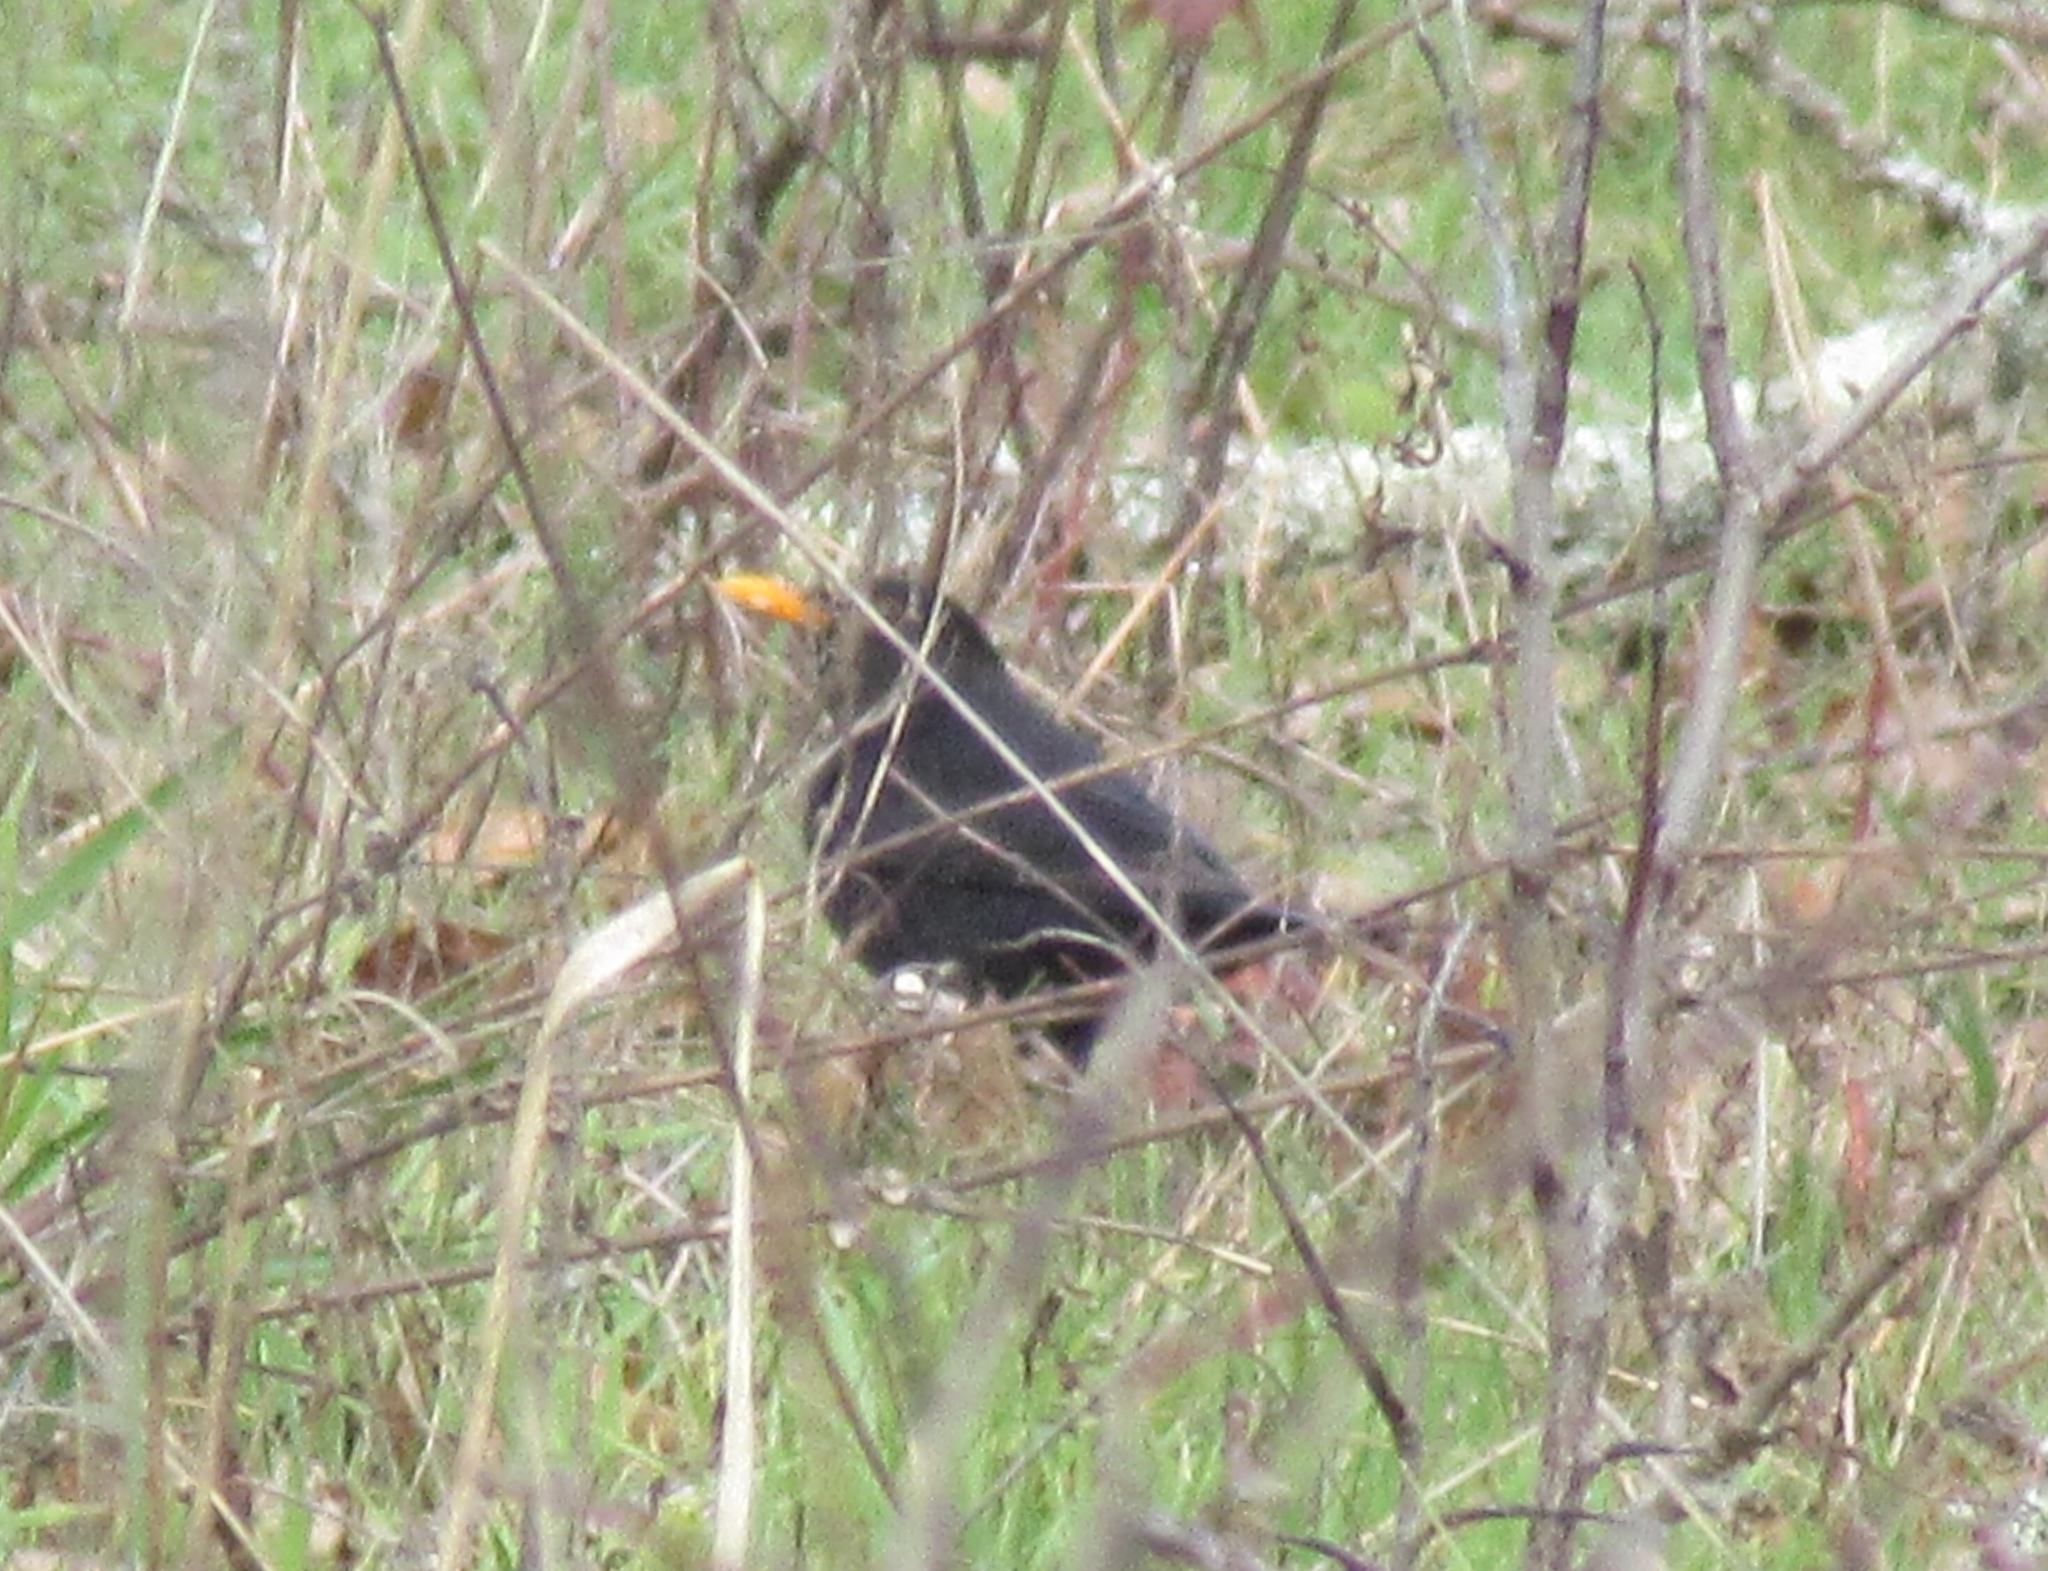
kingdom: Animalia
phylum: Chordata
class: Aves
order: Passeriformes
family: Turdidae
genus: Turdus
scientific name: Turdus merula
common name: Common blackbird
